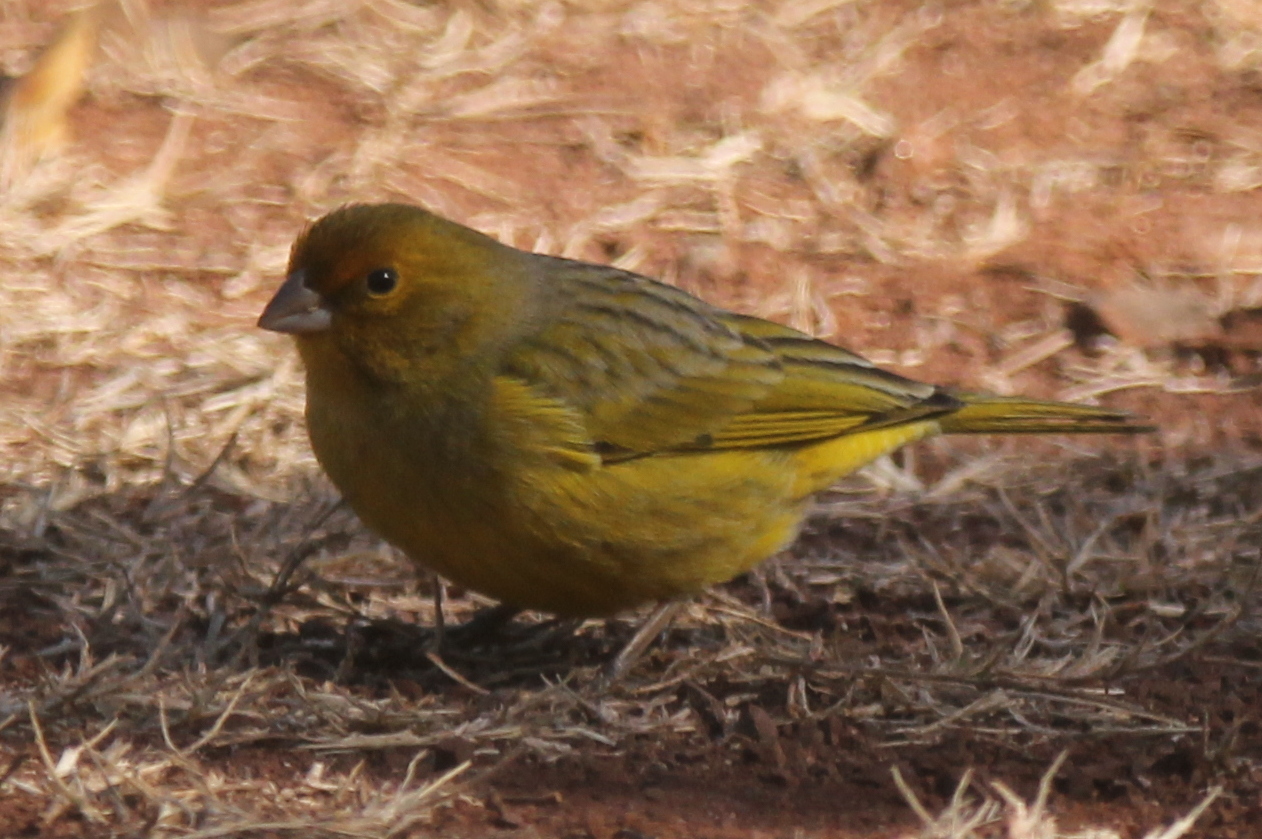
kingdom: Animalia
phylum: Chordata
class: Aves
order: Passeriformes
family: Thraupidae
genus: Sicalis
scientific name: Sicalis flaveola
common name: Saffron finch
